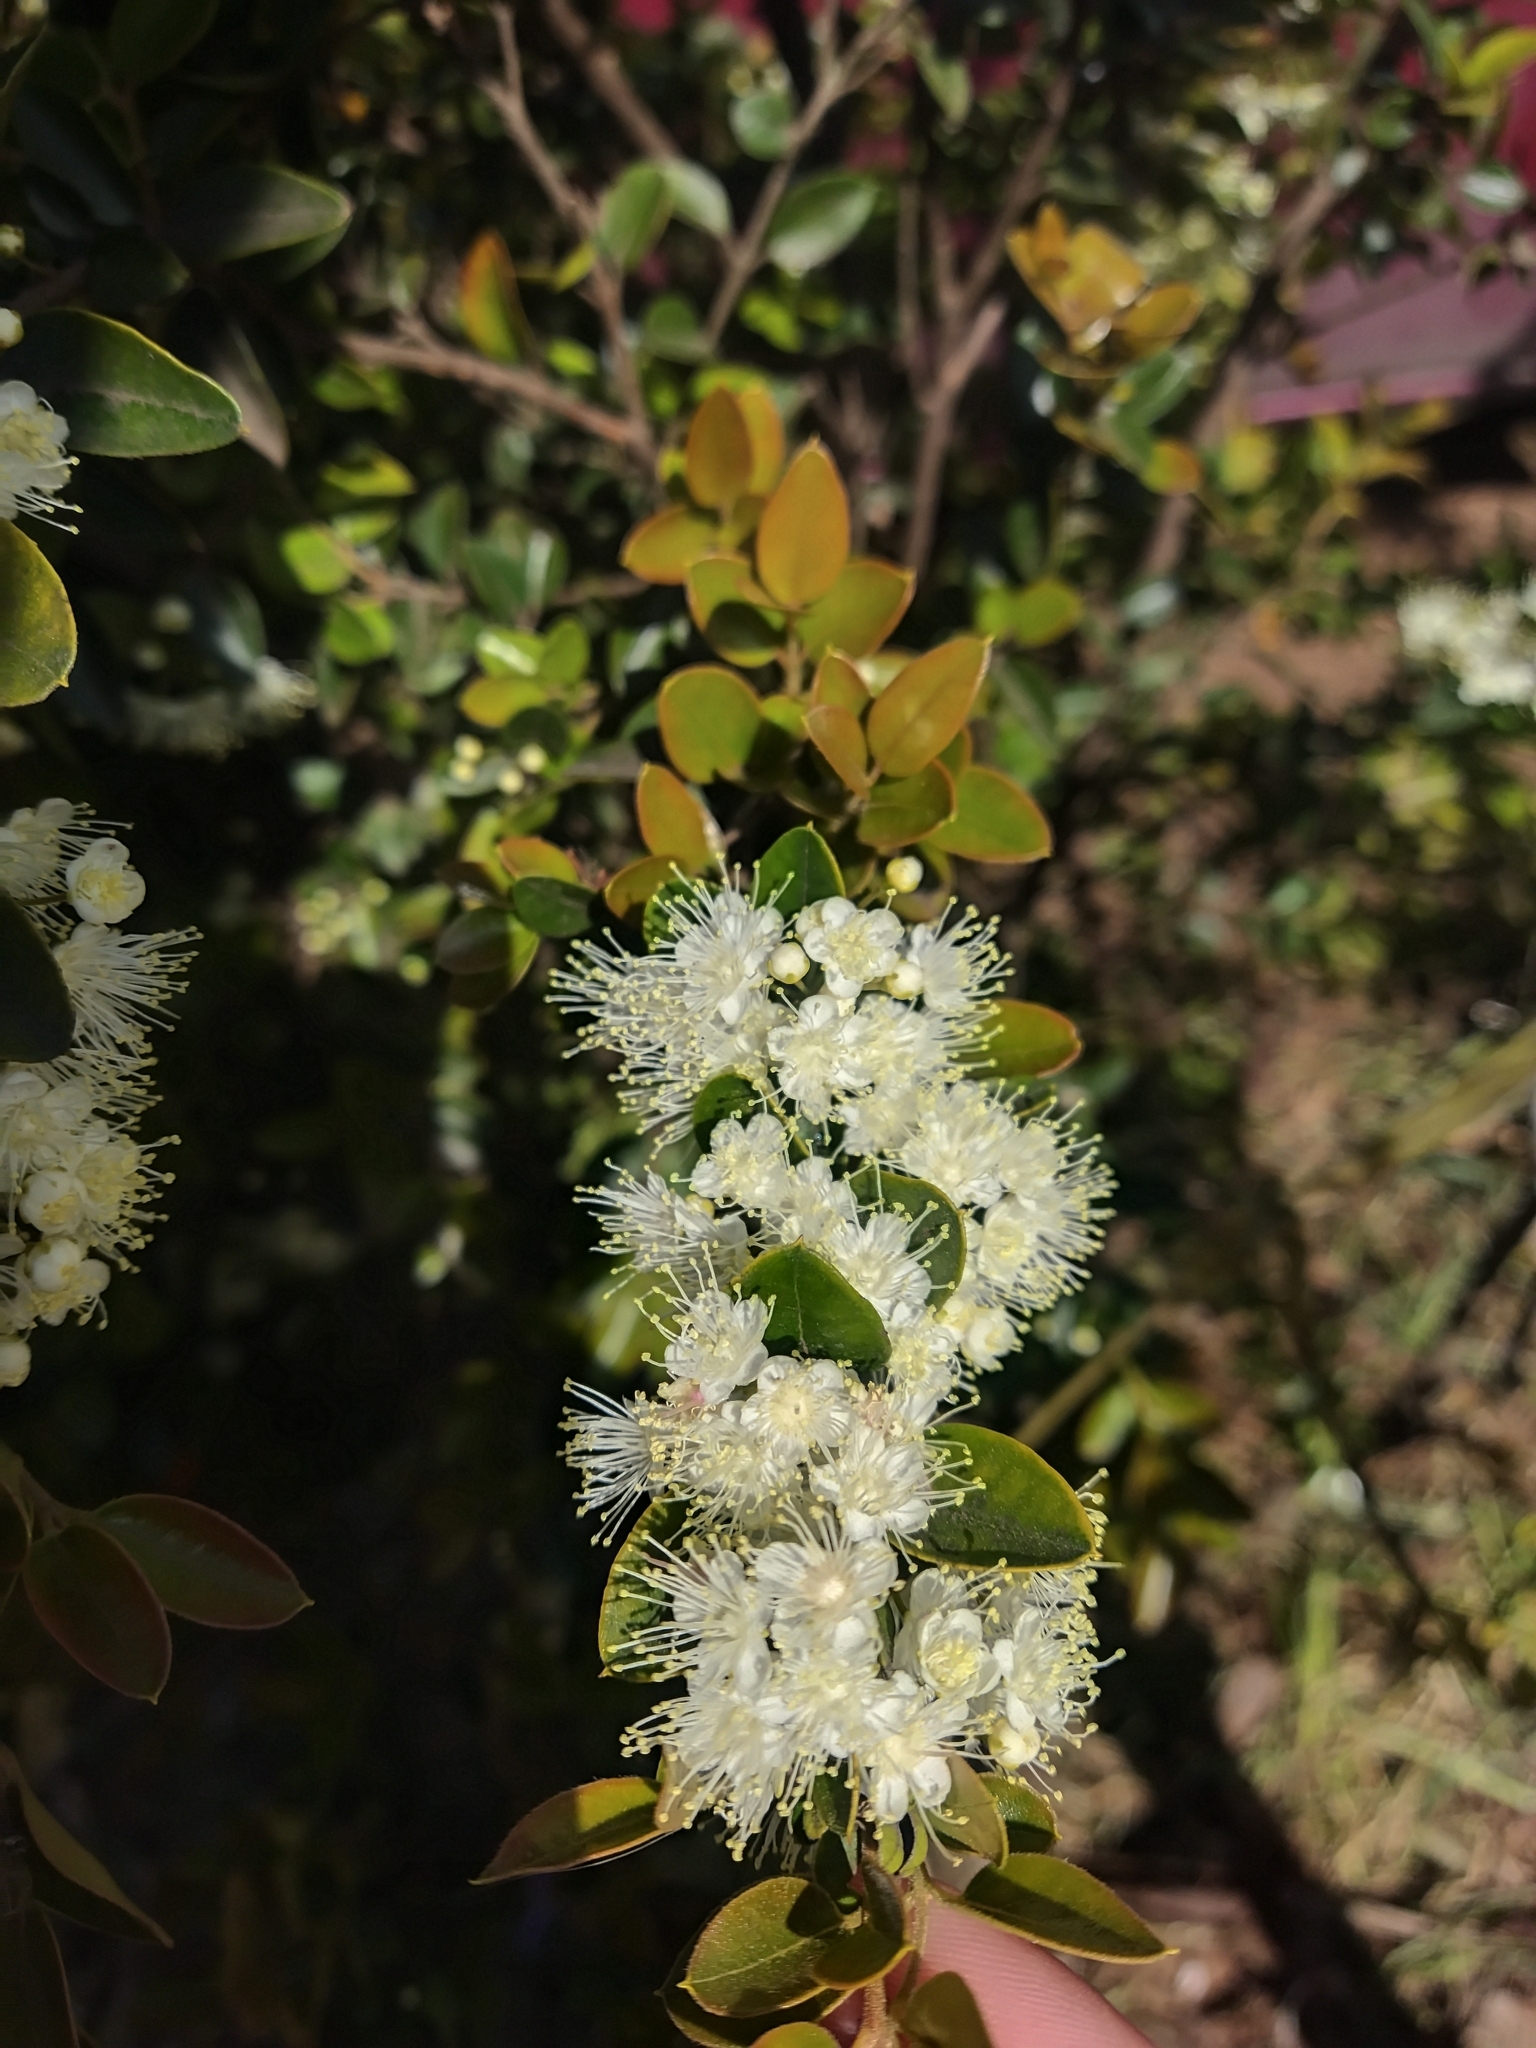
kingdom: Plantae
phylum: Tracheophyta
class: Magnoliopsida
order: Myrtales
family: Myrtaceae
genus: Amomyrtus
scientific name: Amomyrtus luma
